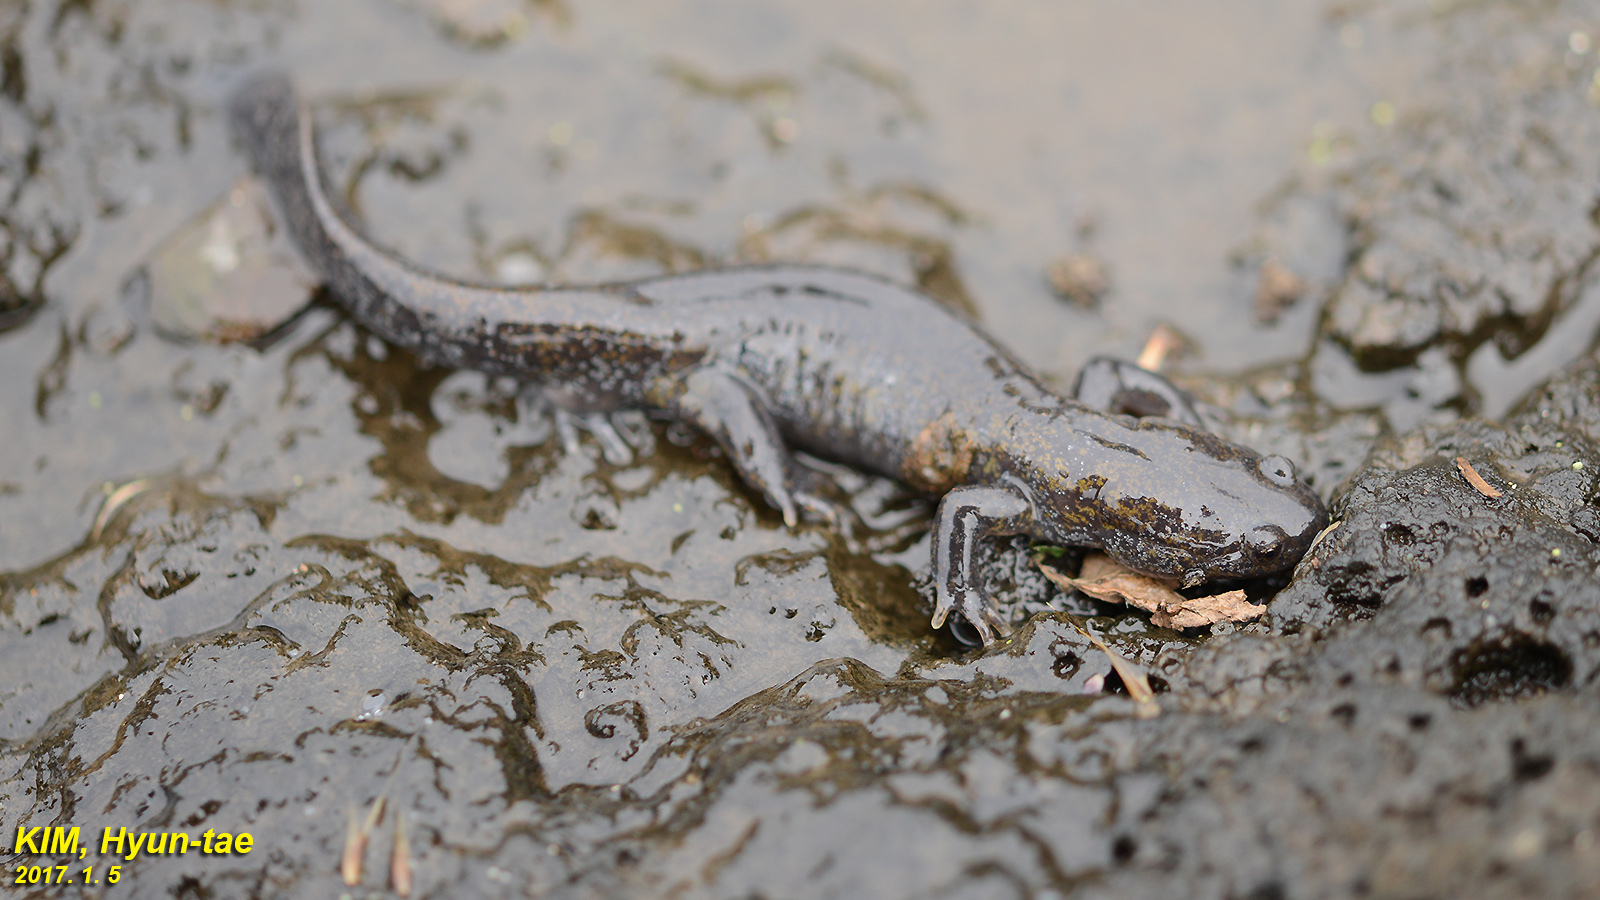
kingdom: Animalia
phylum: Chordata
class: Amphibia
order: Caudata
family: Hynobiidae
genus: Hynobius
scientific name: Hynobius quelpaertensis
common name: Cheju salamander
